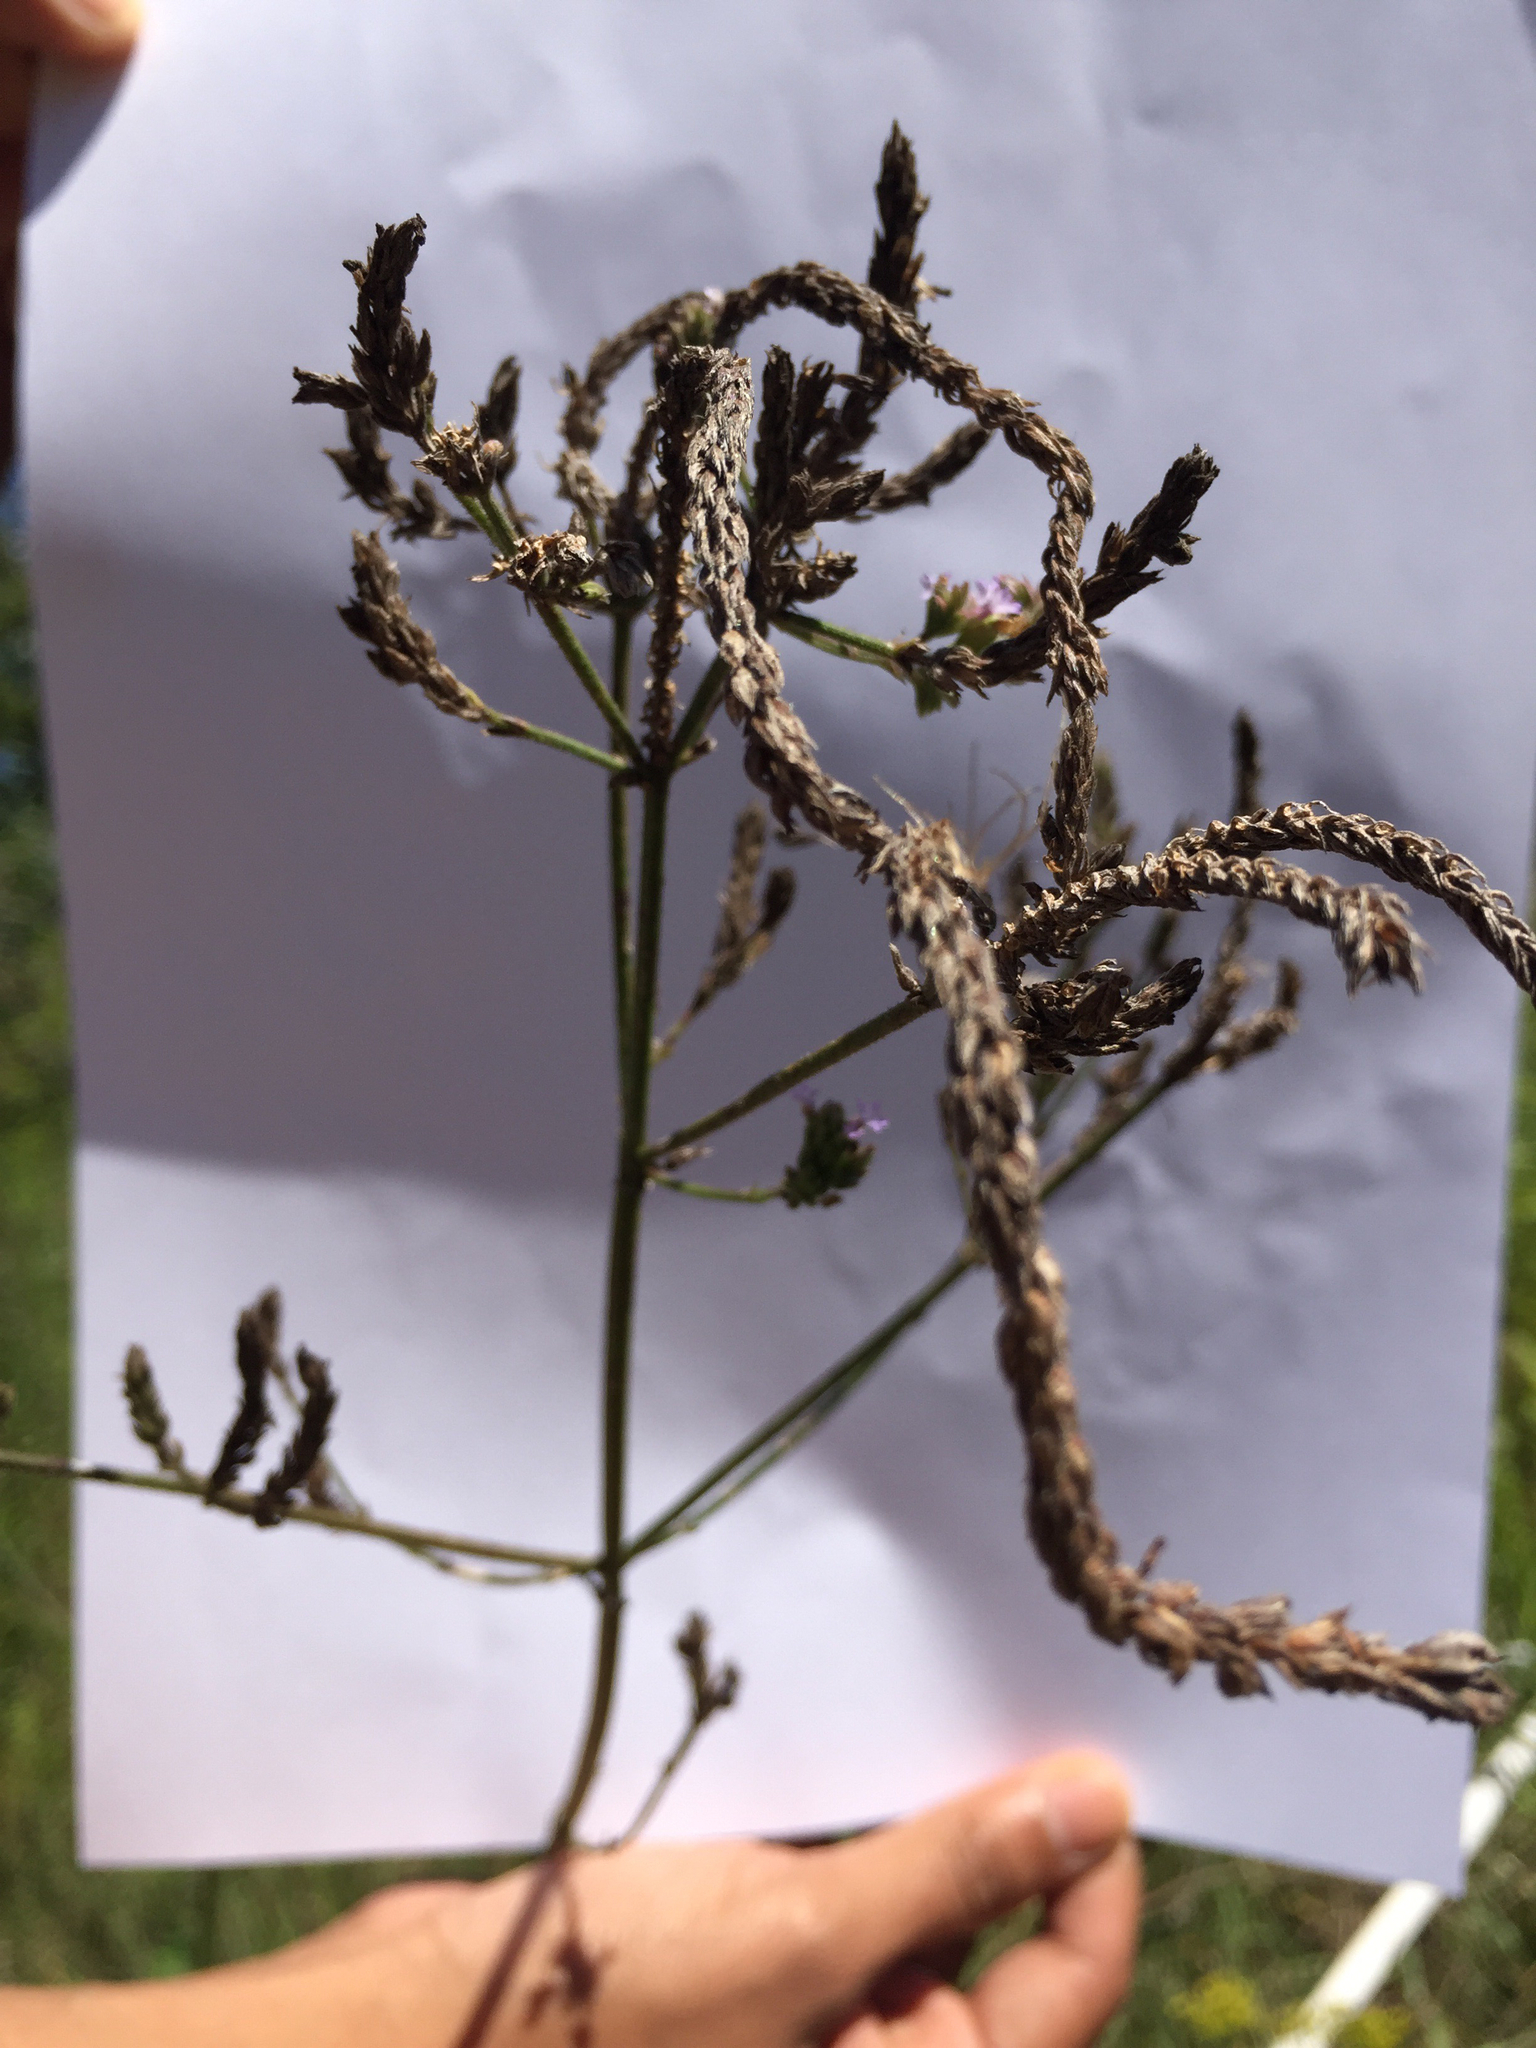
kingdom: Plantae
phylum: Tracheophyta
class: Magnoliopsida
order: Lamiales
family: Verbenaceae
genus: Verbena
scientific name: Verbena brasiliensis
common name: Brazilian vervain
